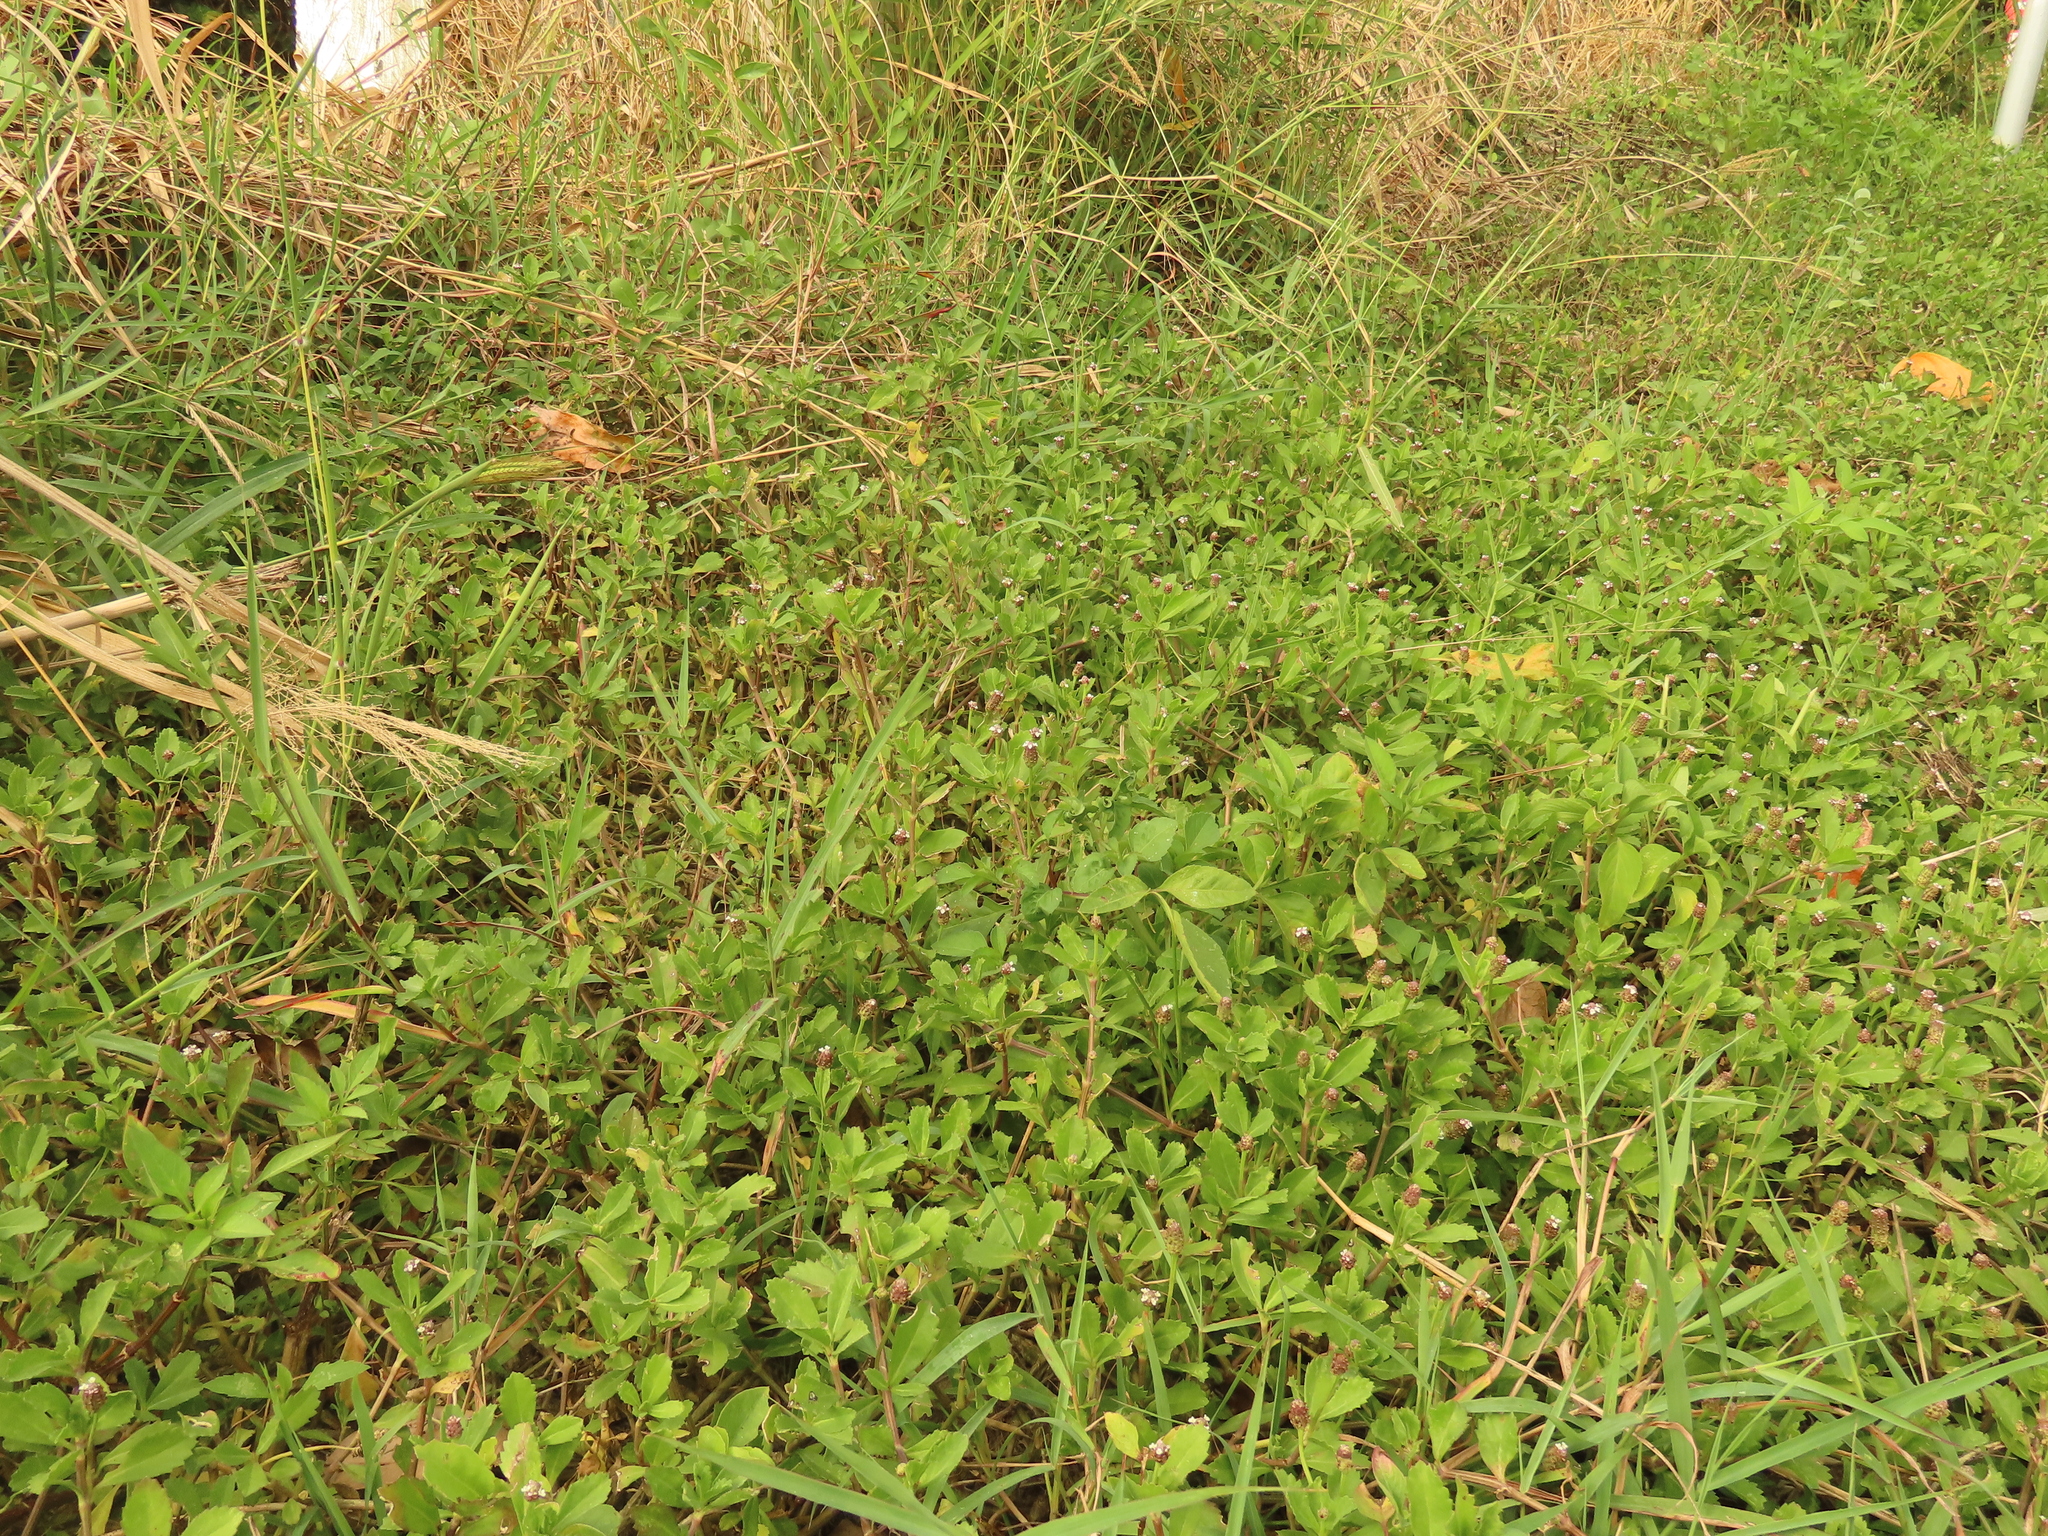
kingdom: Plantae
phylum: Tracheophyta
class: Magnoliopsida
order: Lamiales
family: Verbenaceae
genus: Phyla
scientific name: Phyla nodiflora
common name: Frogfruit
